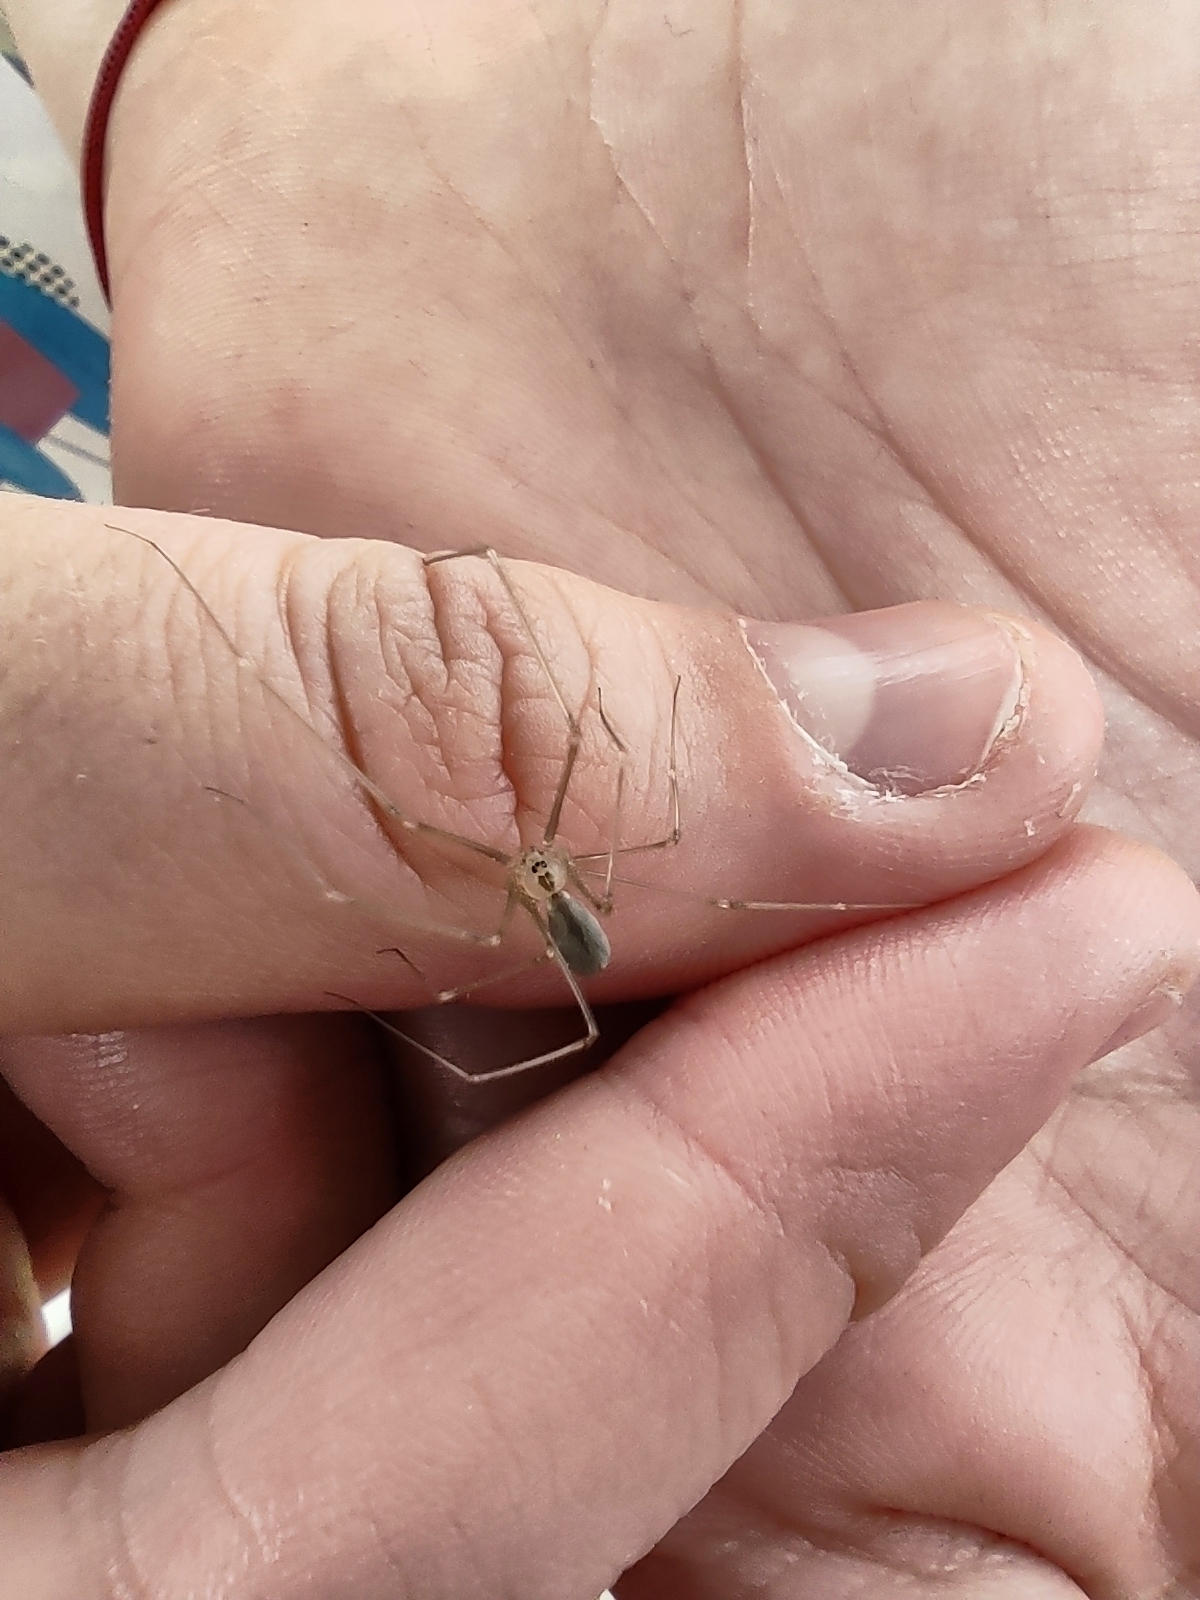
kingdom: Animalia
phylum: Arthropoda
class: Arachnida
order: Araneae
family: Pholcidae
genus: Pholcus
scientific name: Pholcus ponticus
